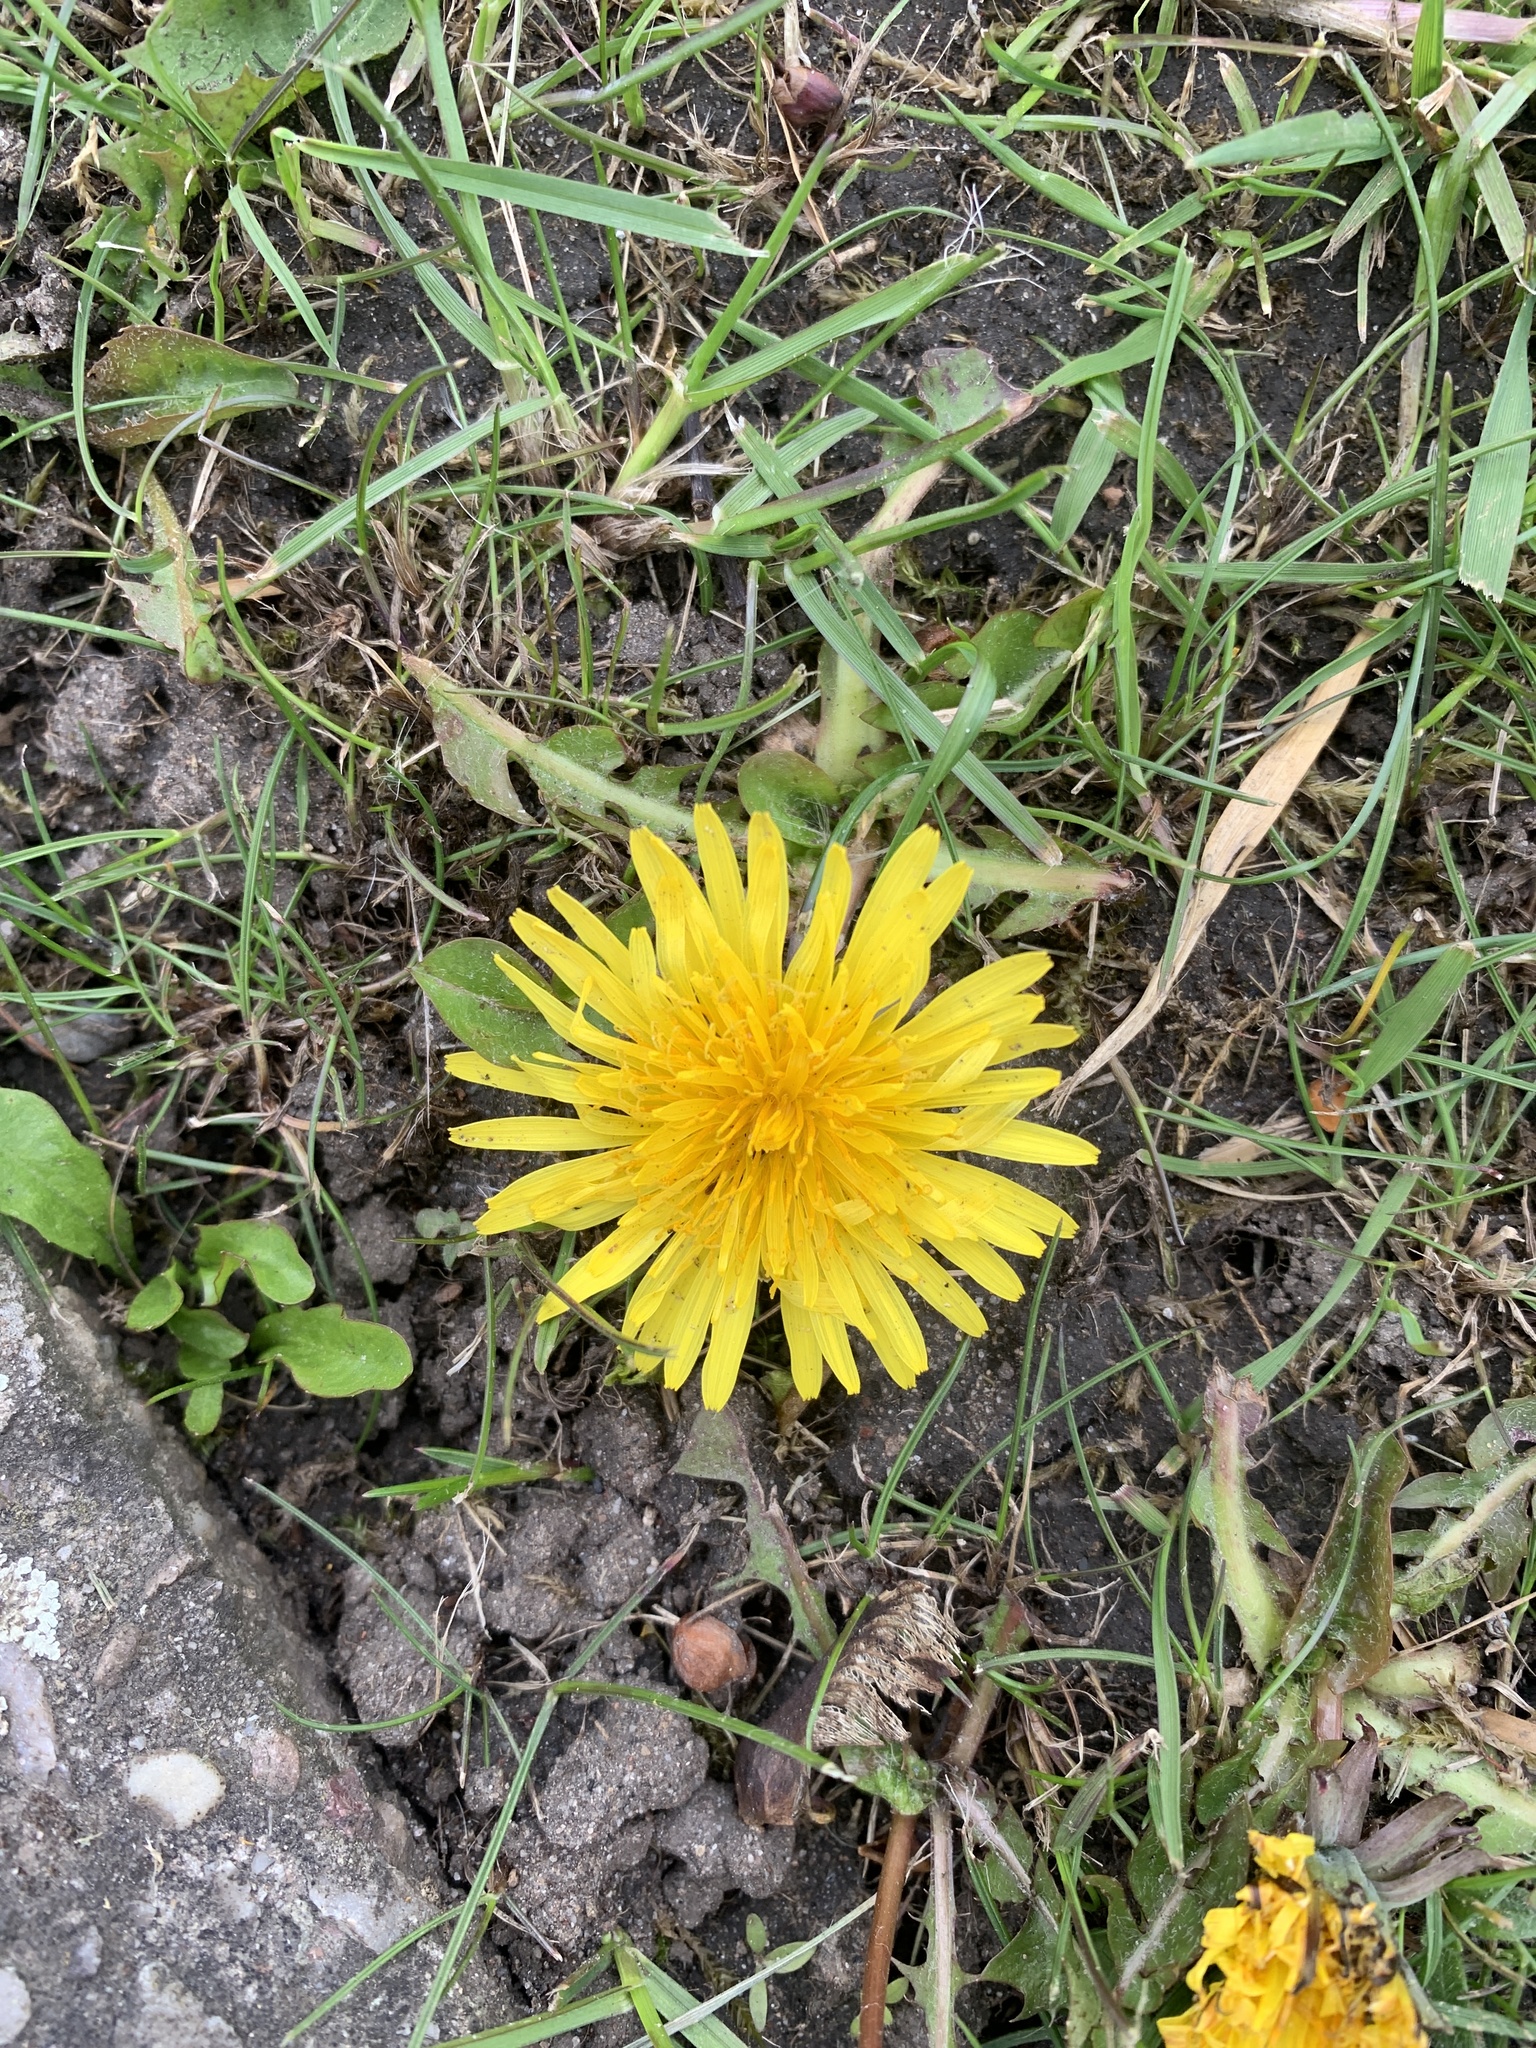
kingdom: Plantae
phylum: Tracheophyta
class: Magnoliopsida
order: Asterales
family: Asteraceae
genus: Taraxacum
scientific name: Taraxacum officinale
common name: Common dandelion
